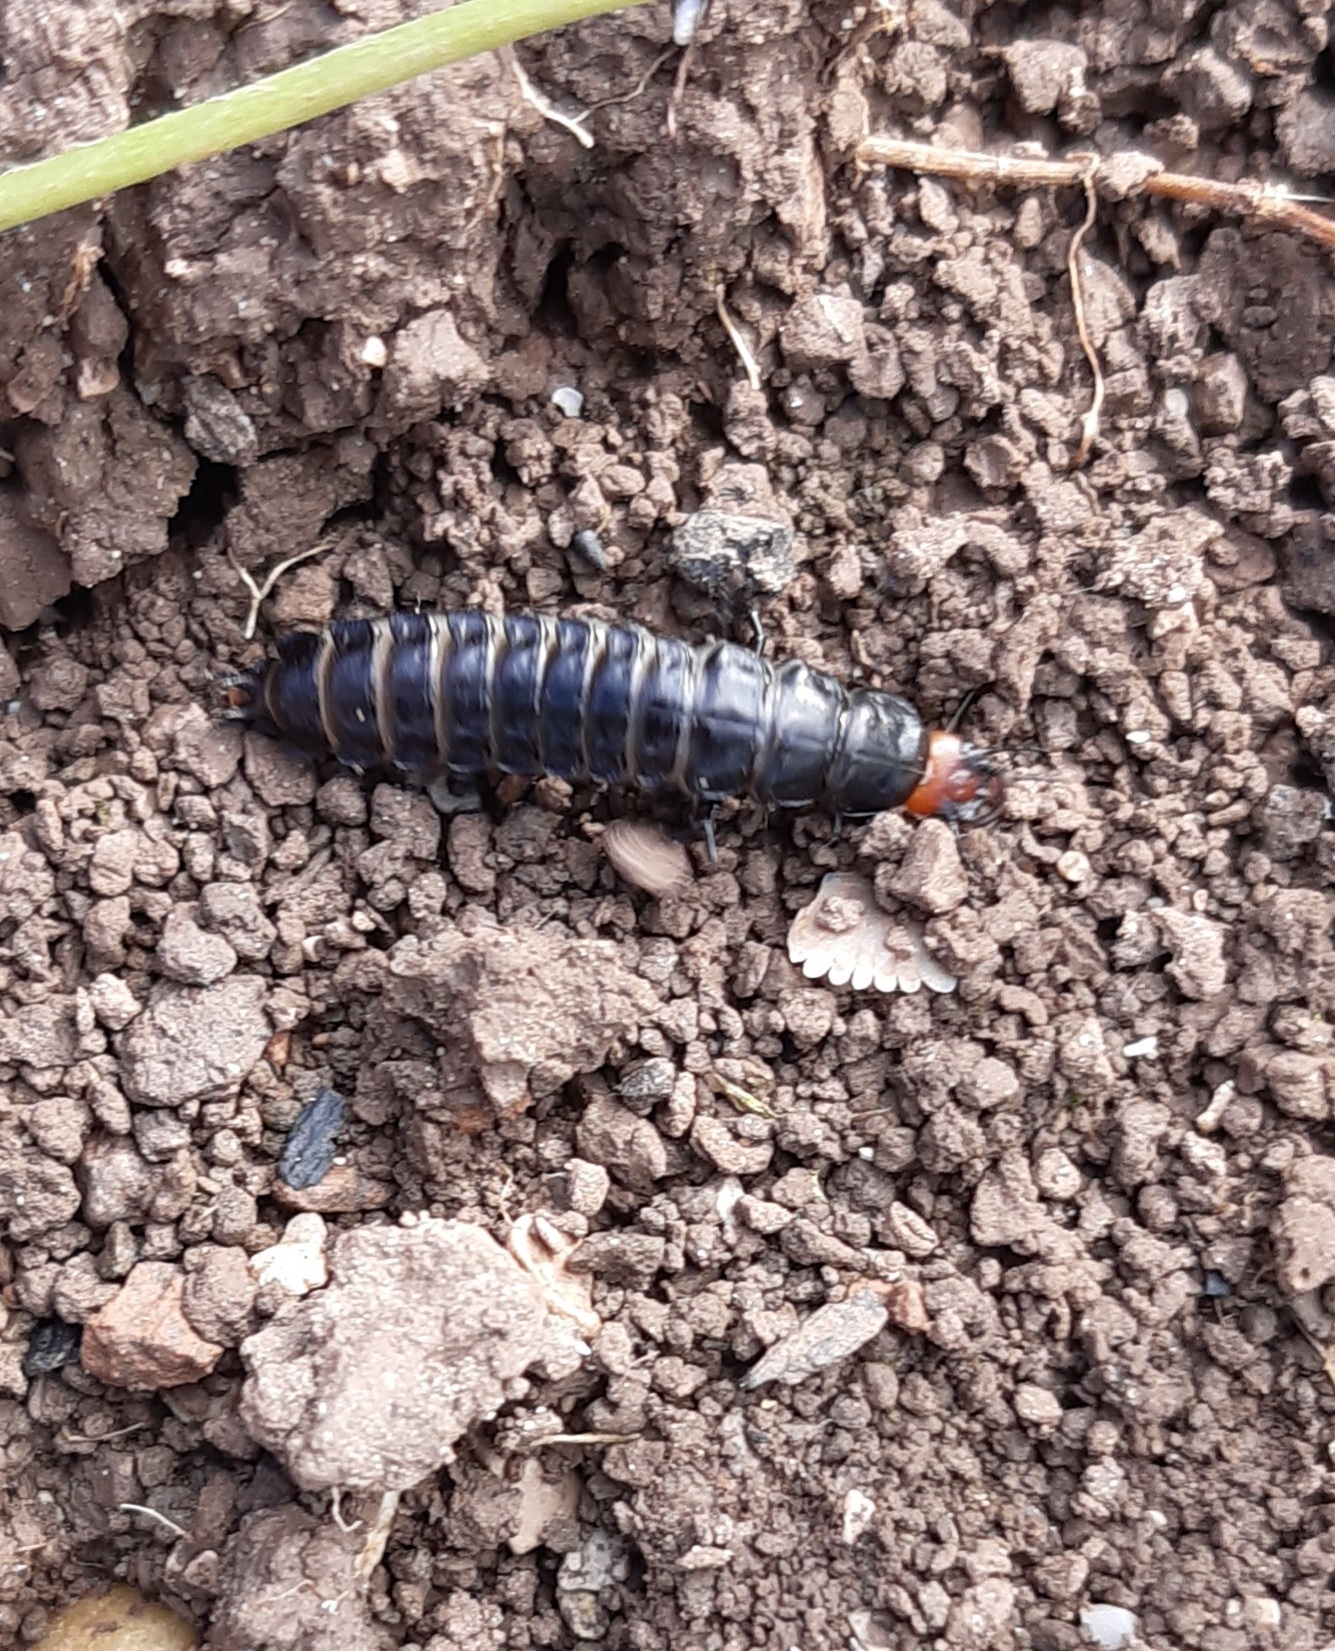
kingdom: Animalia
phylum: Arthropoda
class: Insecta
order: Coleoptera
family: Carabidae
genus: Carabus
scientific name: Carabus germarii
